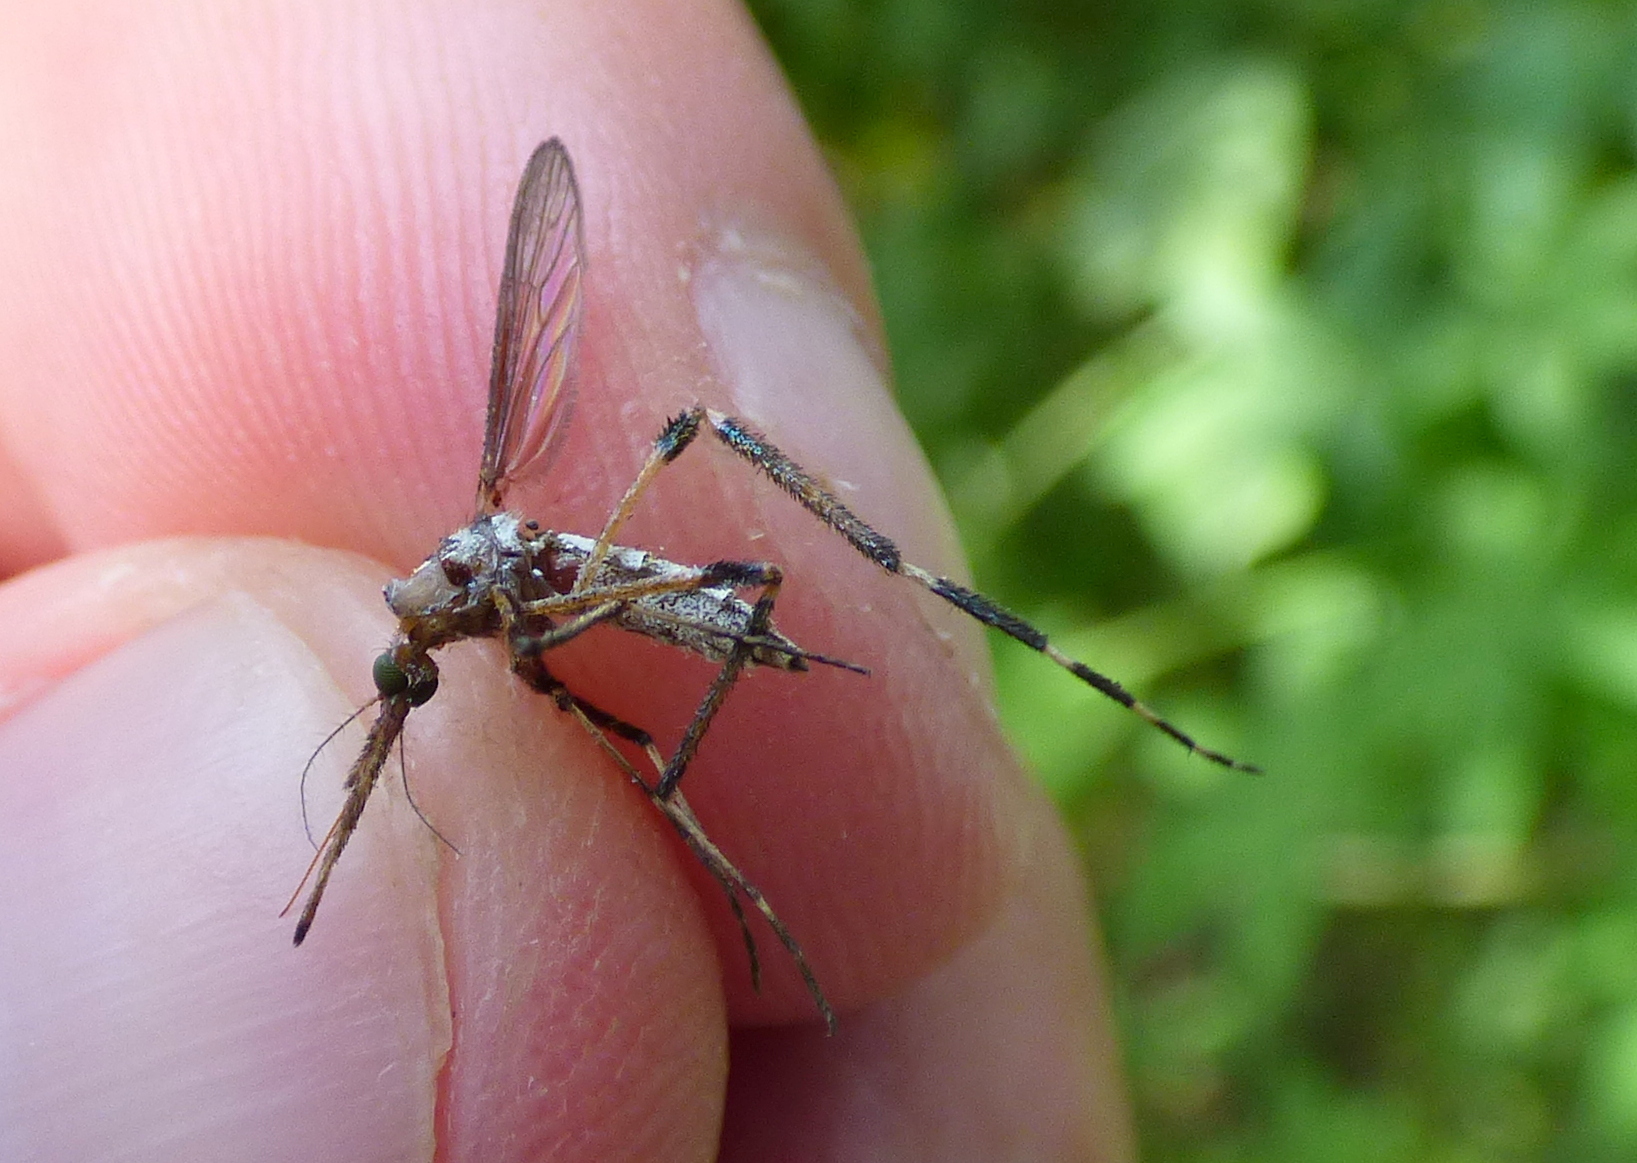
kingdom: Animalia
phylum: Arthropoda
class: Insecta
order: Diptera
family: Culicidae
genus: Psorophora
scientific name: Psorophora ciliata
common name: Gallinipper
